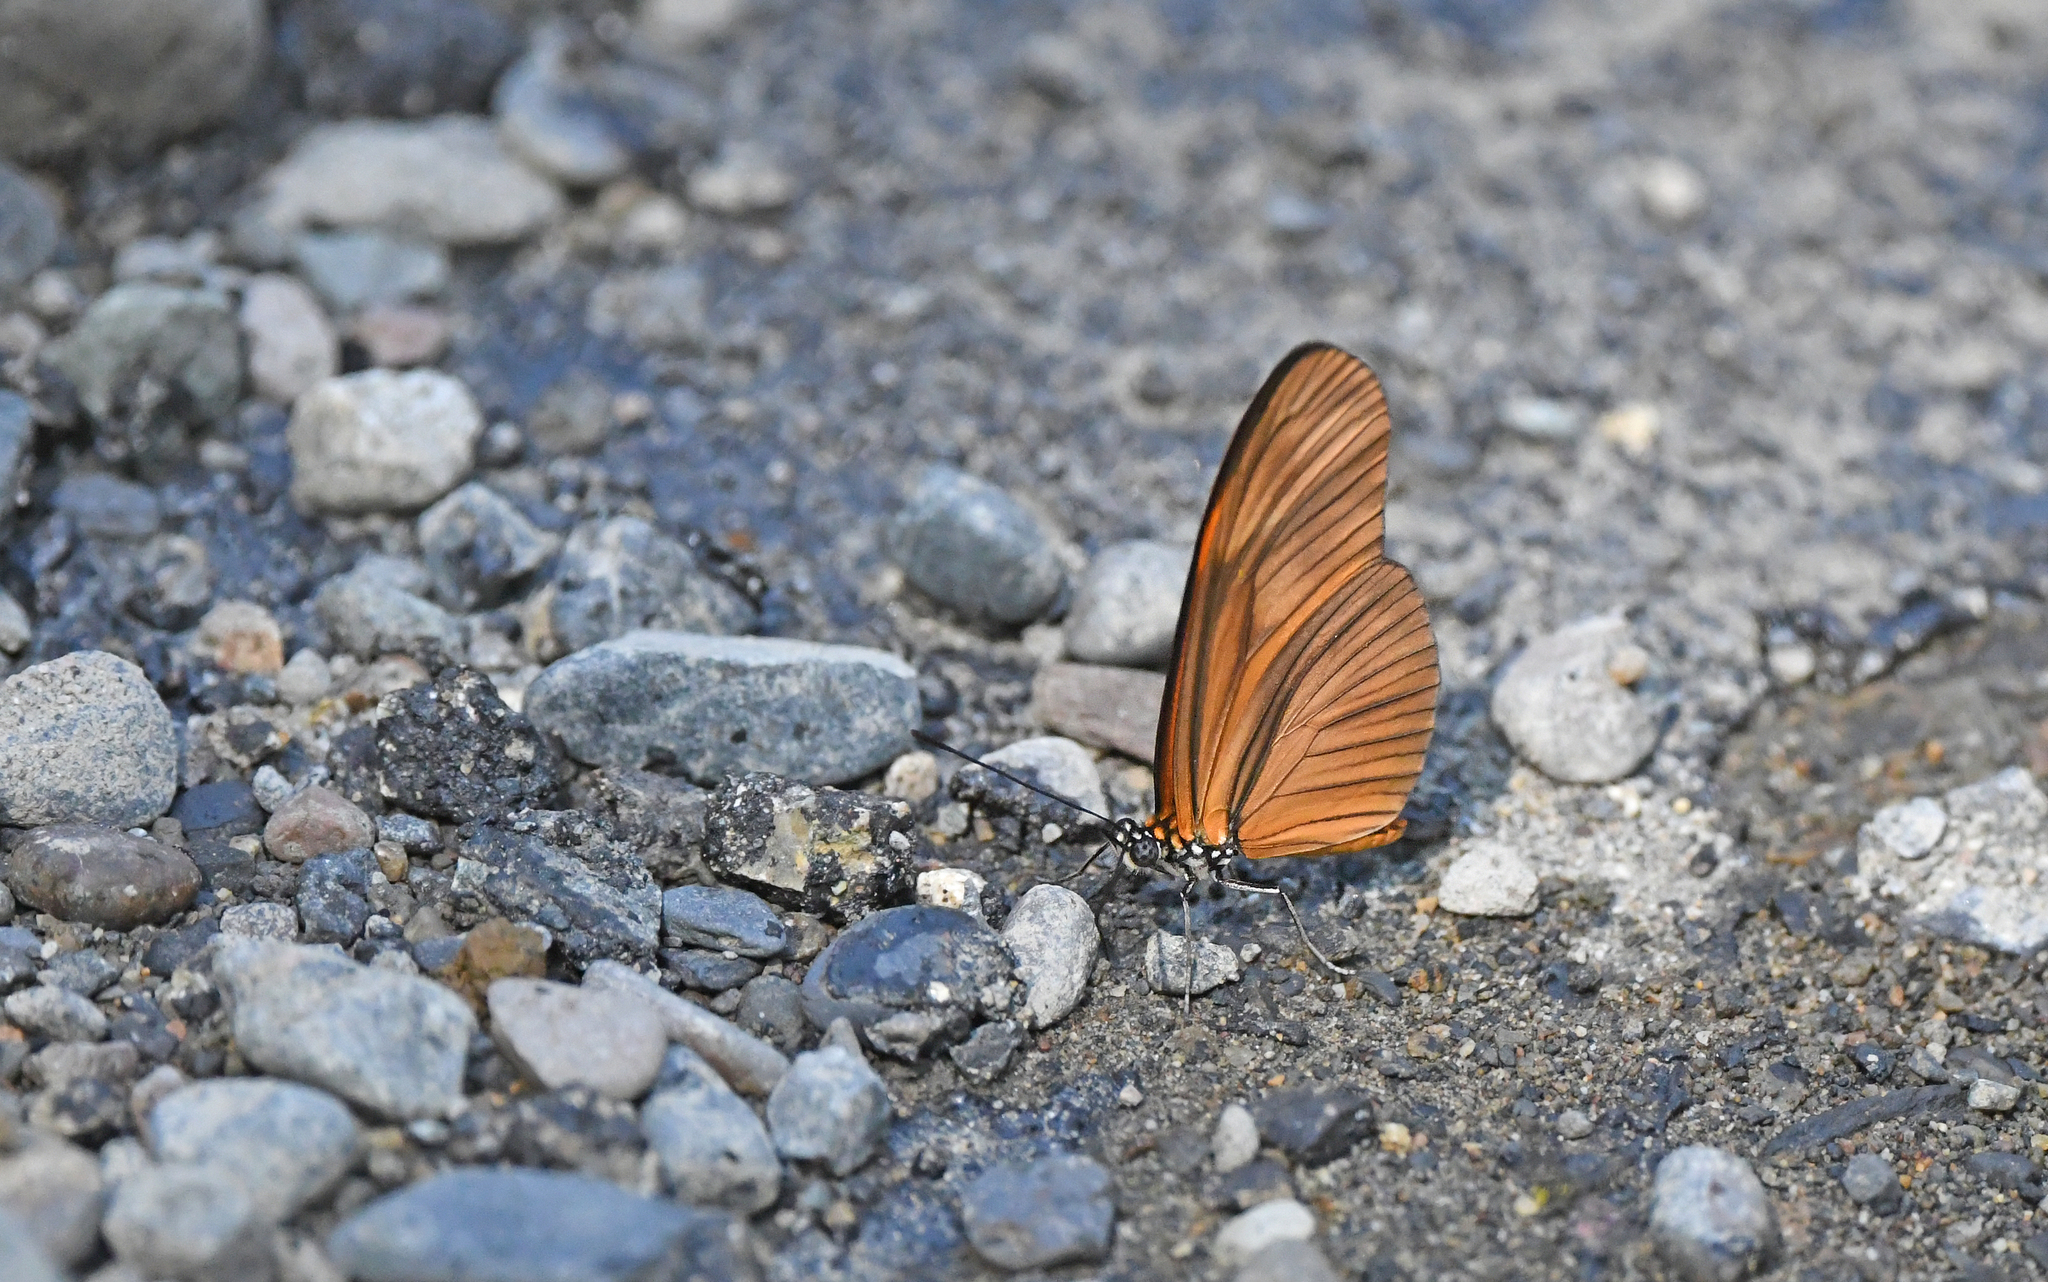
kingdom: Animalia
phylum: Arthropoda
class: Insecta
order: Lepidoptera
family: Nymphalidae
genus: Heliconius
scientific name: Heliconius aliphera
